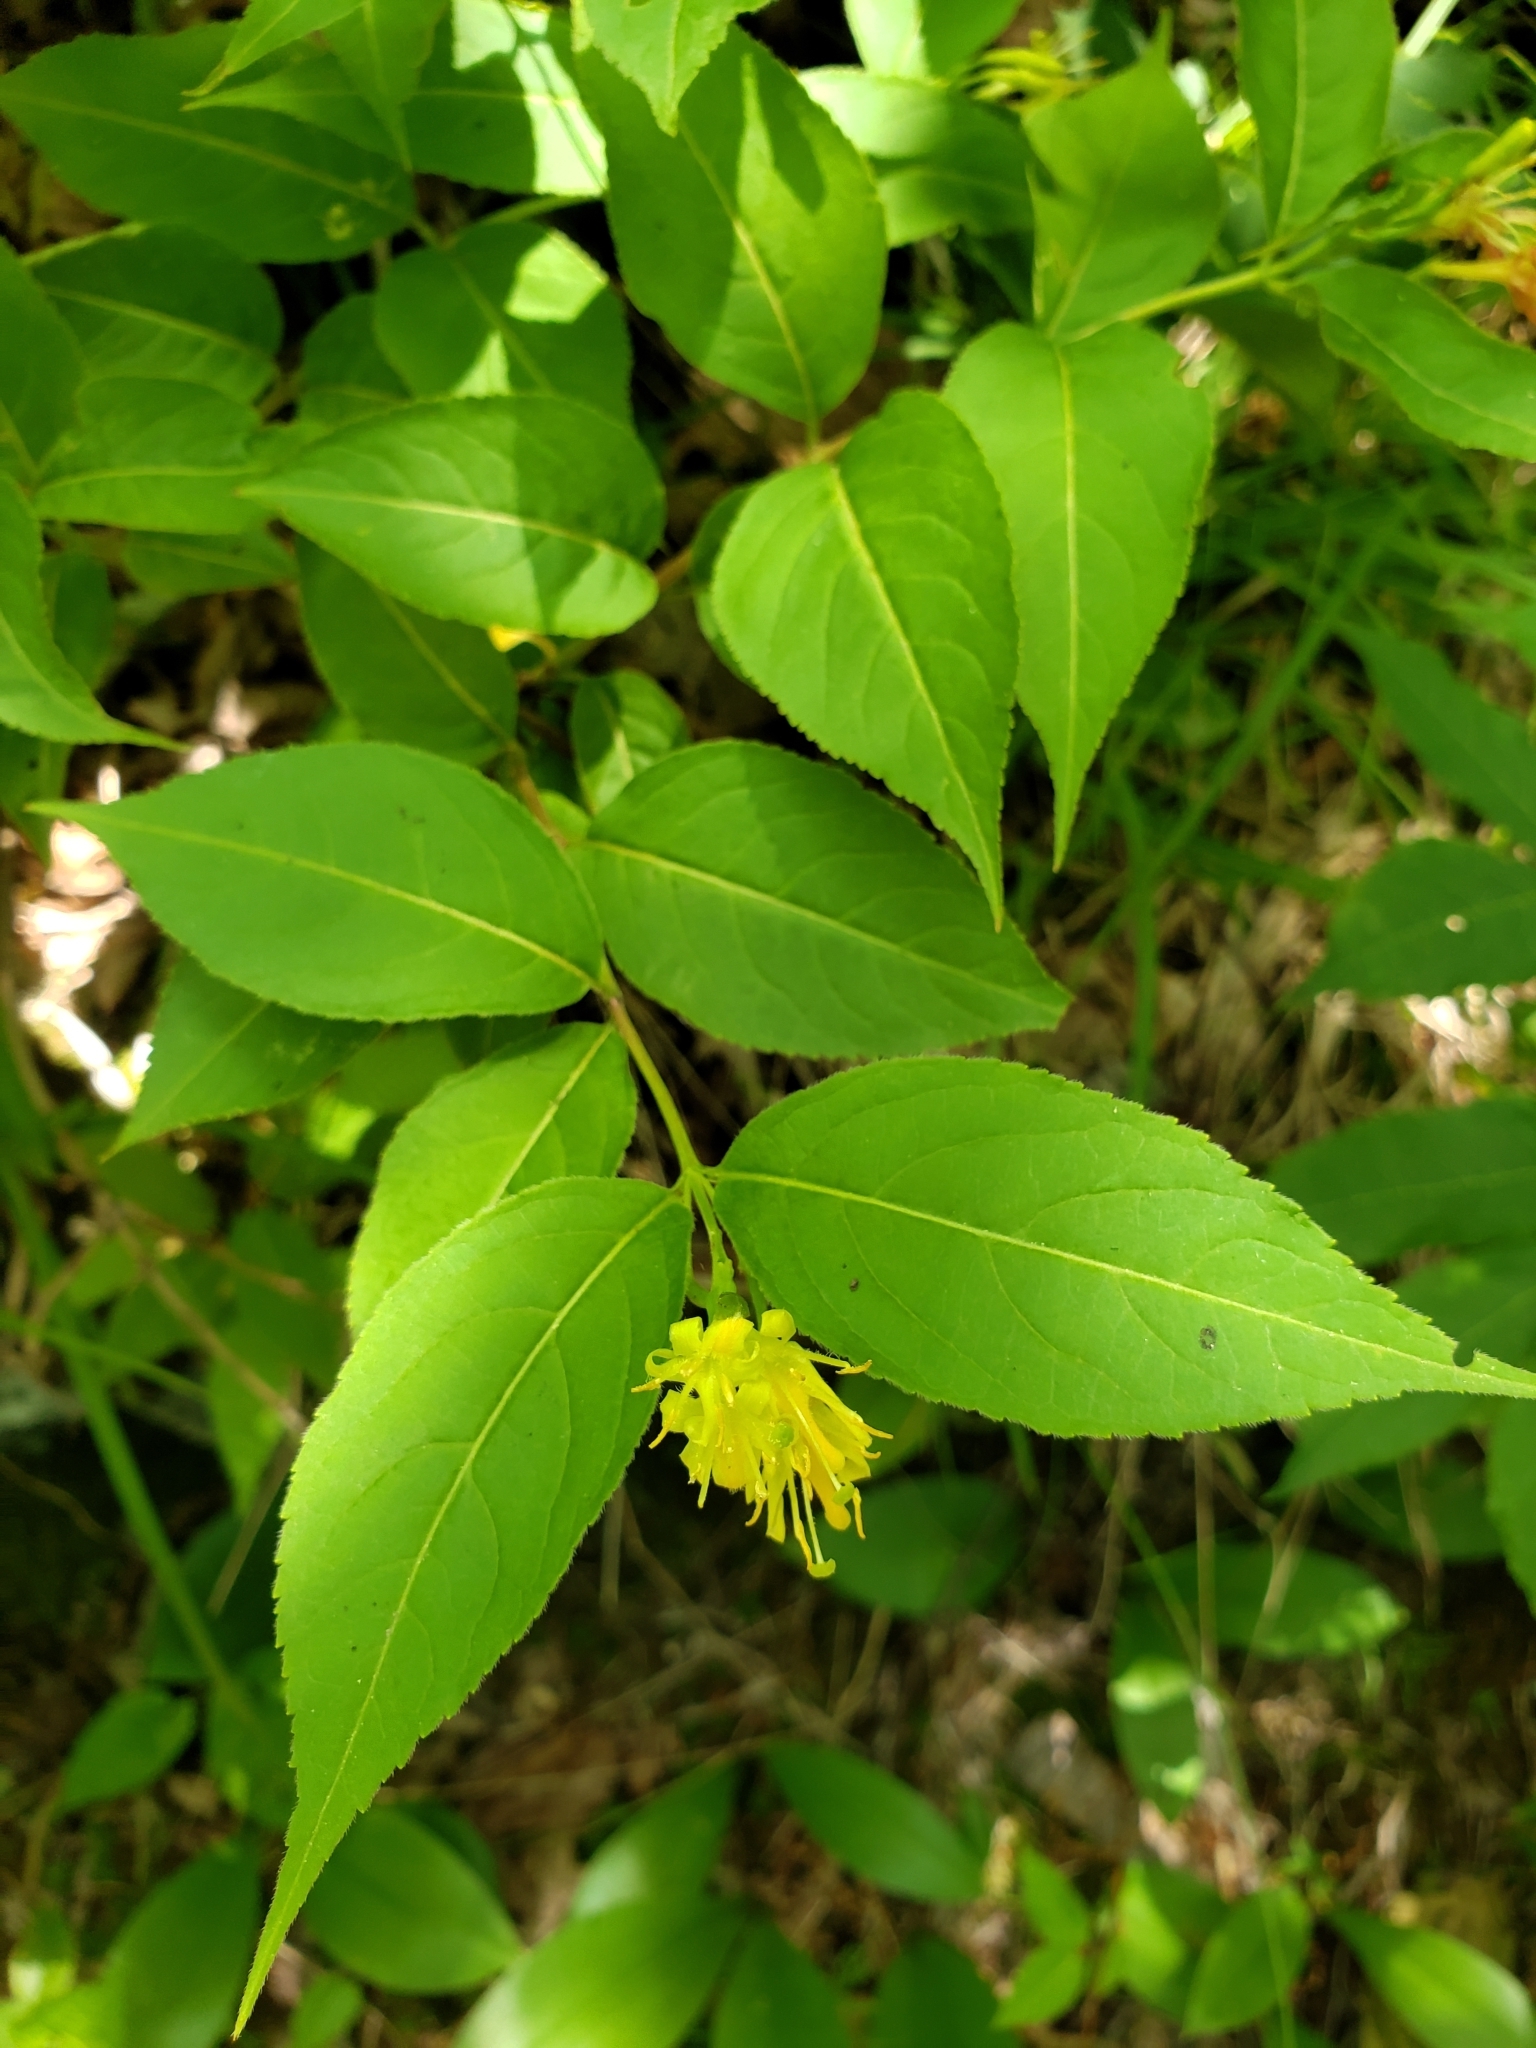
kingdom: Plantae
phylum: Tracheophyta
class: Magnoliopsida
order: Dipsacales
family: Caprifoliaceae
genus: Diervilla
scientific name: Diervilla lonicera
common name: Bush-honeysuckle
